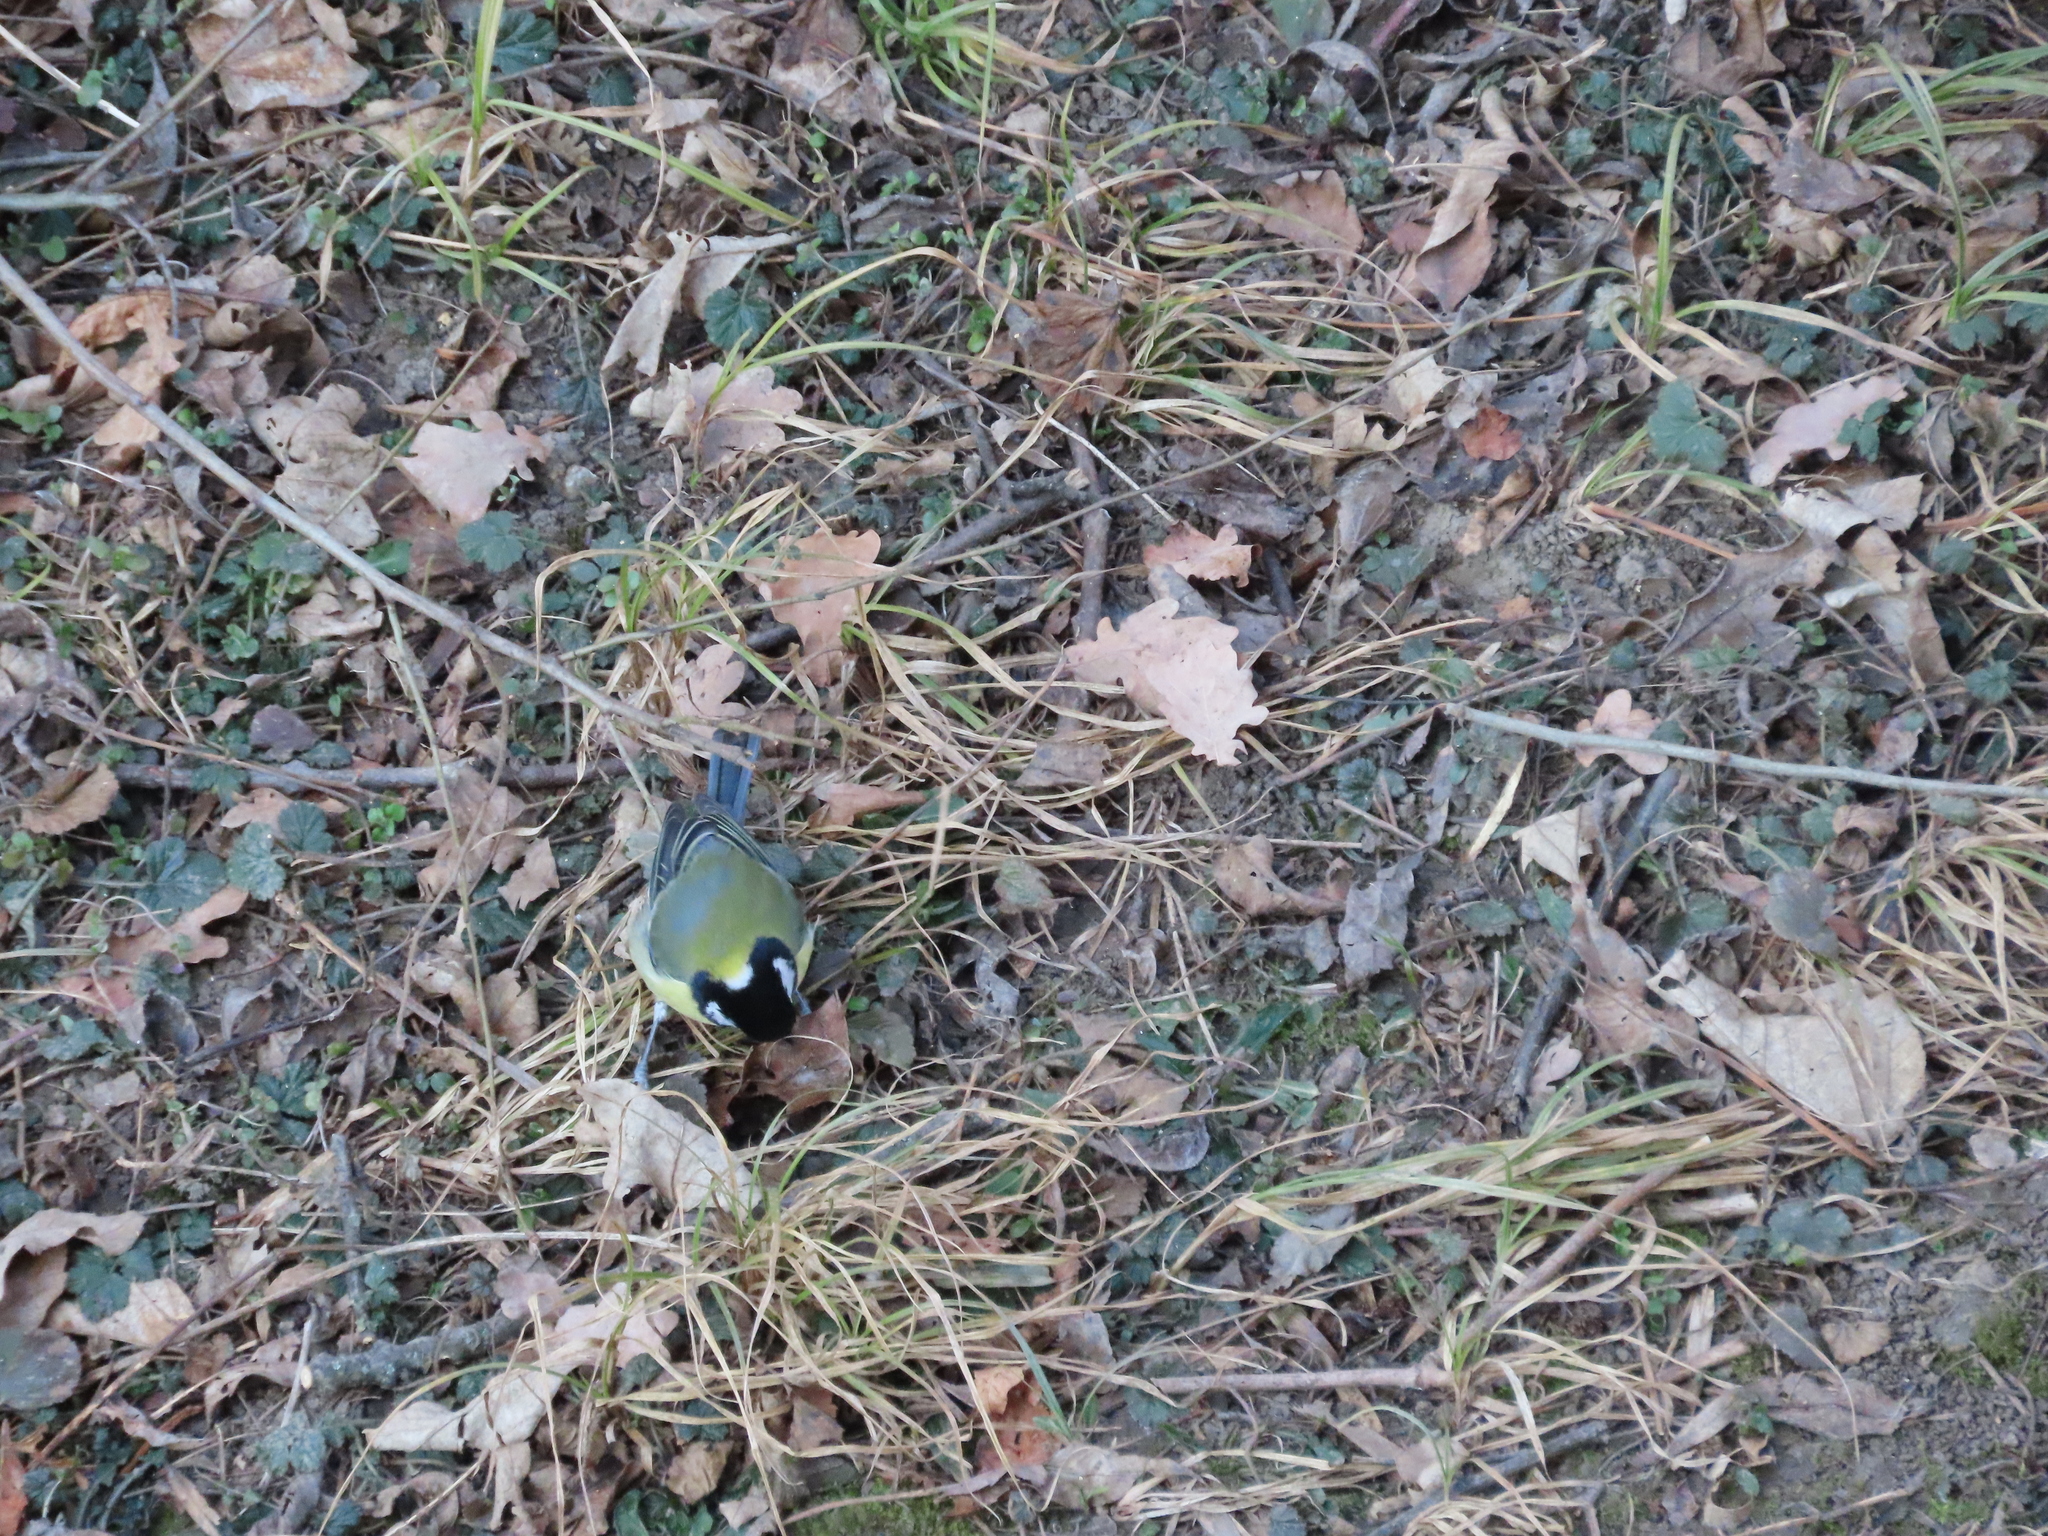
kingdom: Animalia
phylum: Chordata
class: Aves
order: Passeriformes
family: Paridae
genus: Parus
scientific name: Parus major
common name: Great tit
